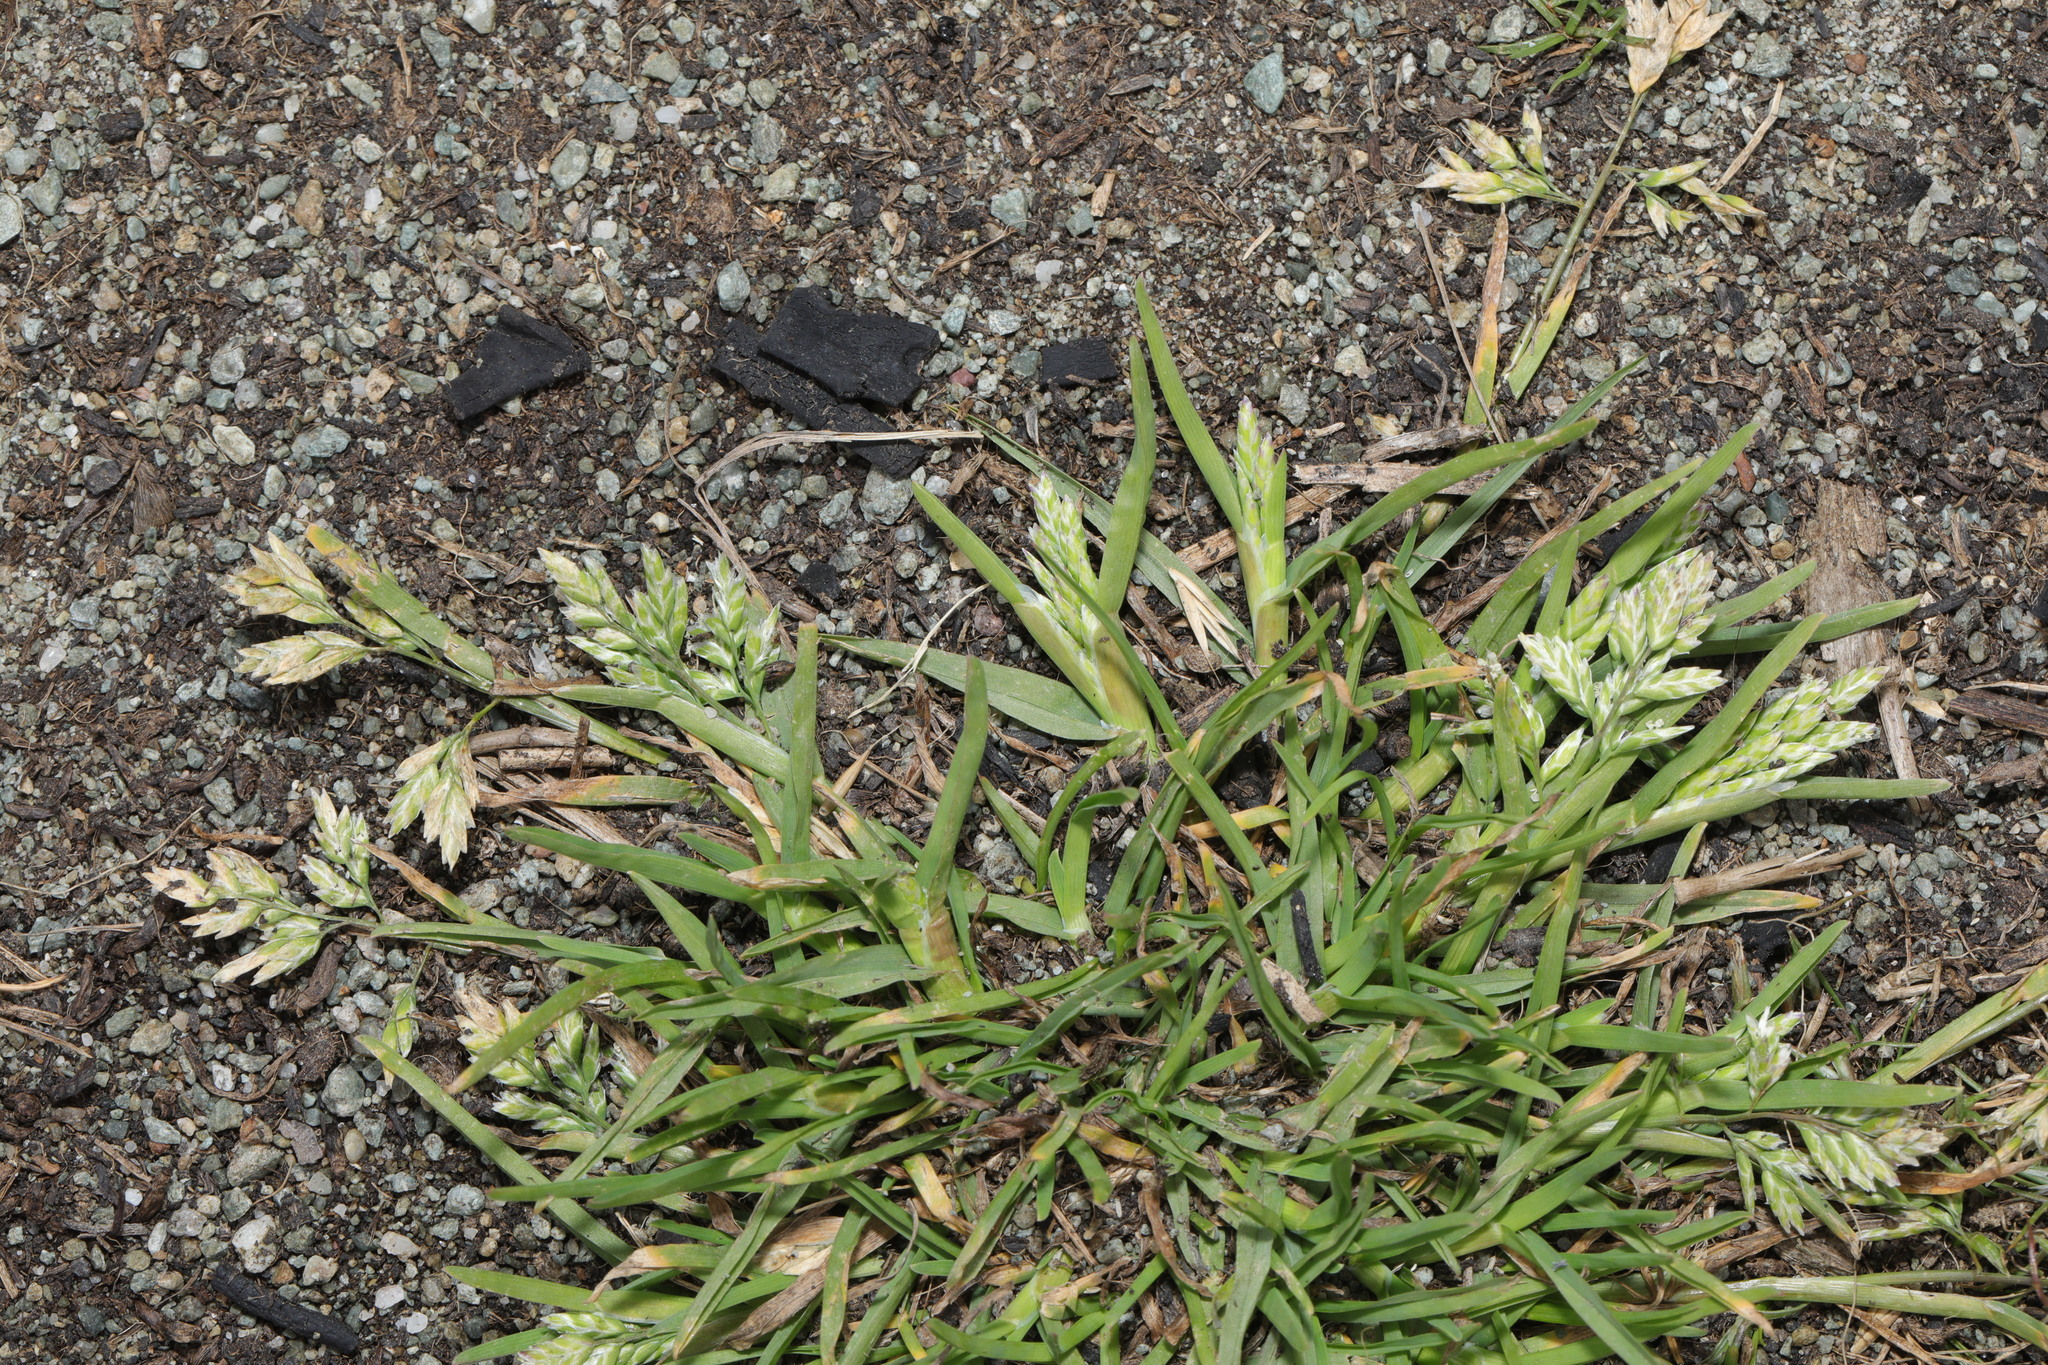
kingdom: Plantae
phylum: Tracheophyta
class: Liliopsida
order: Poales
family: Poaceae
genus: Poa
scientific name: Poa annua
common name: Annual bluegrass
